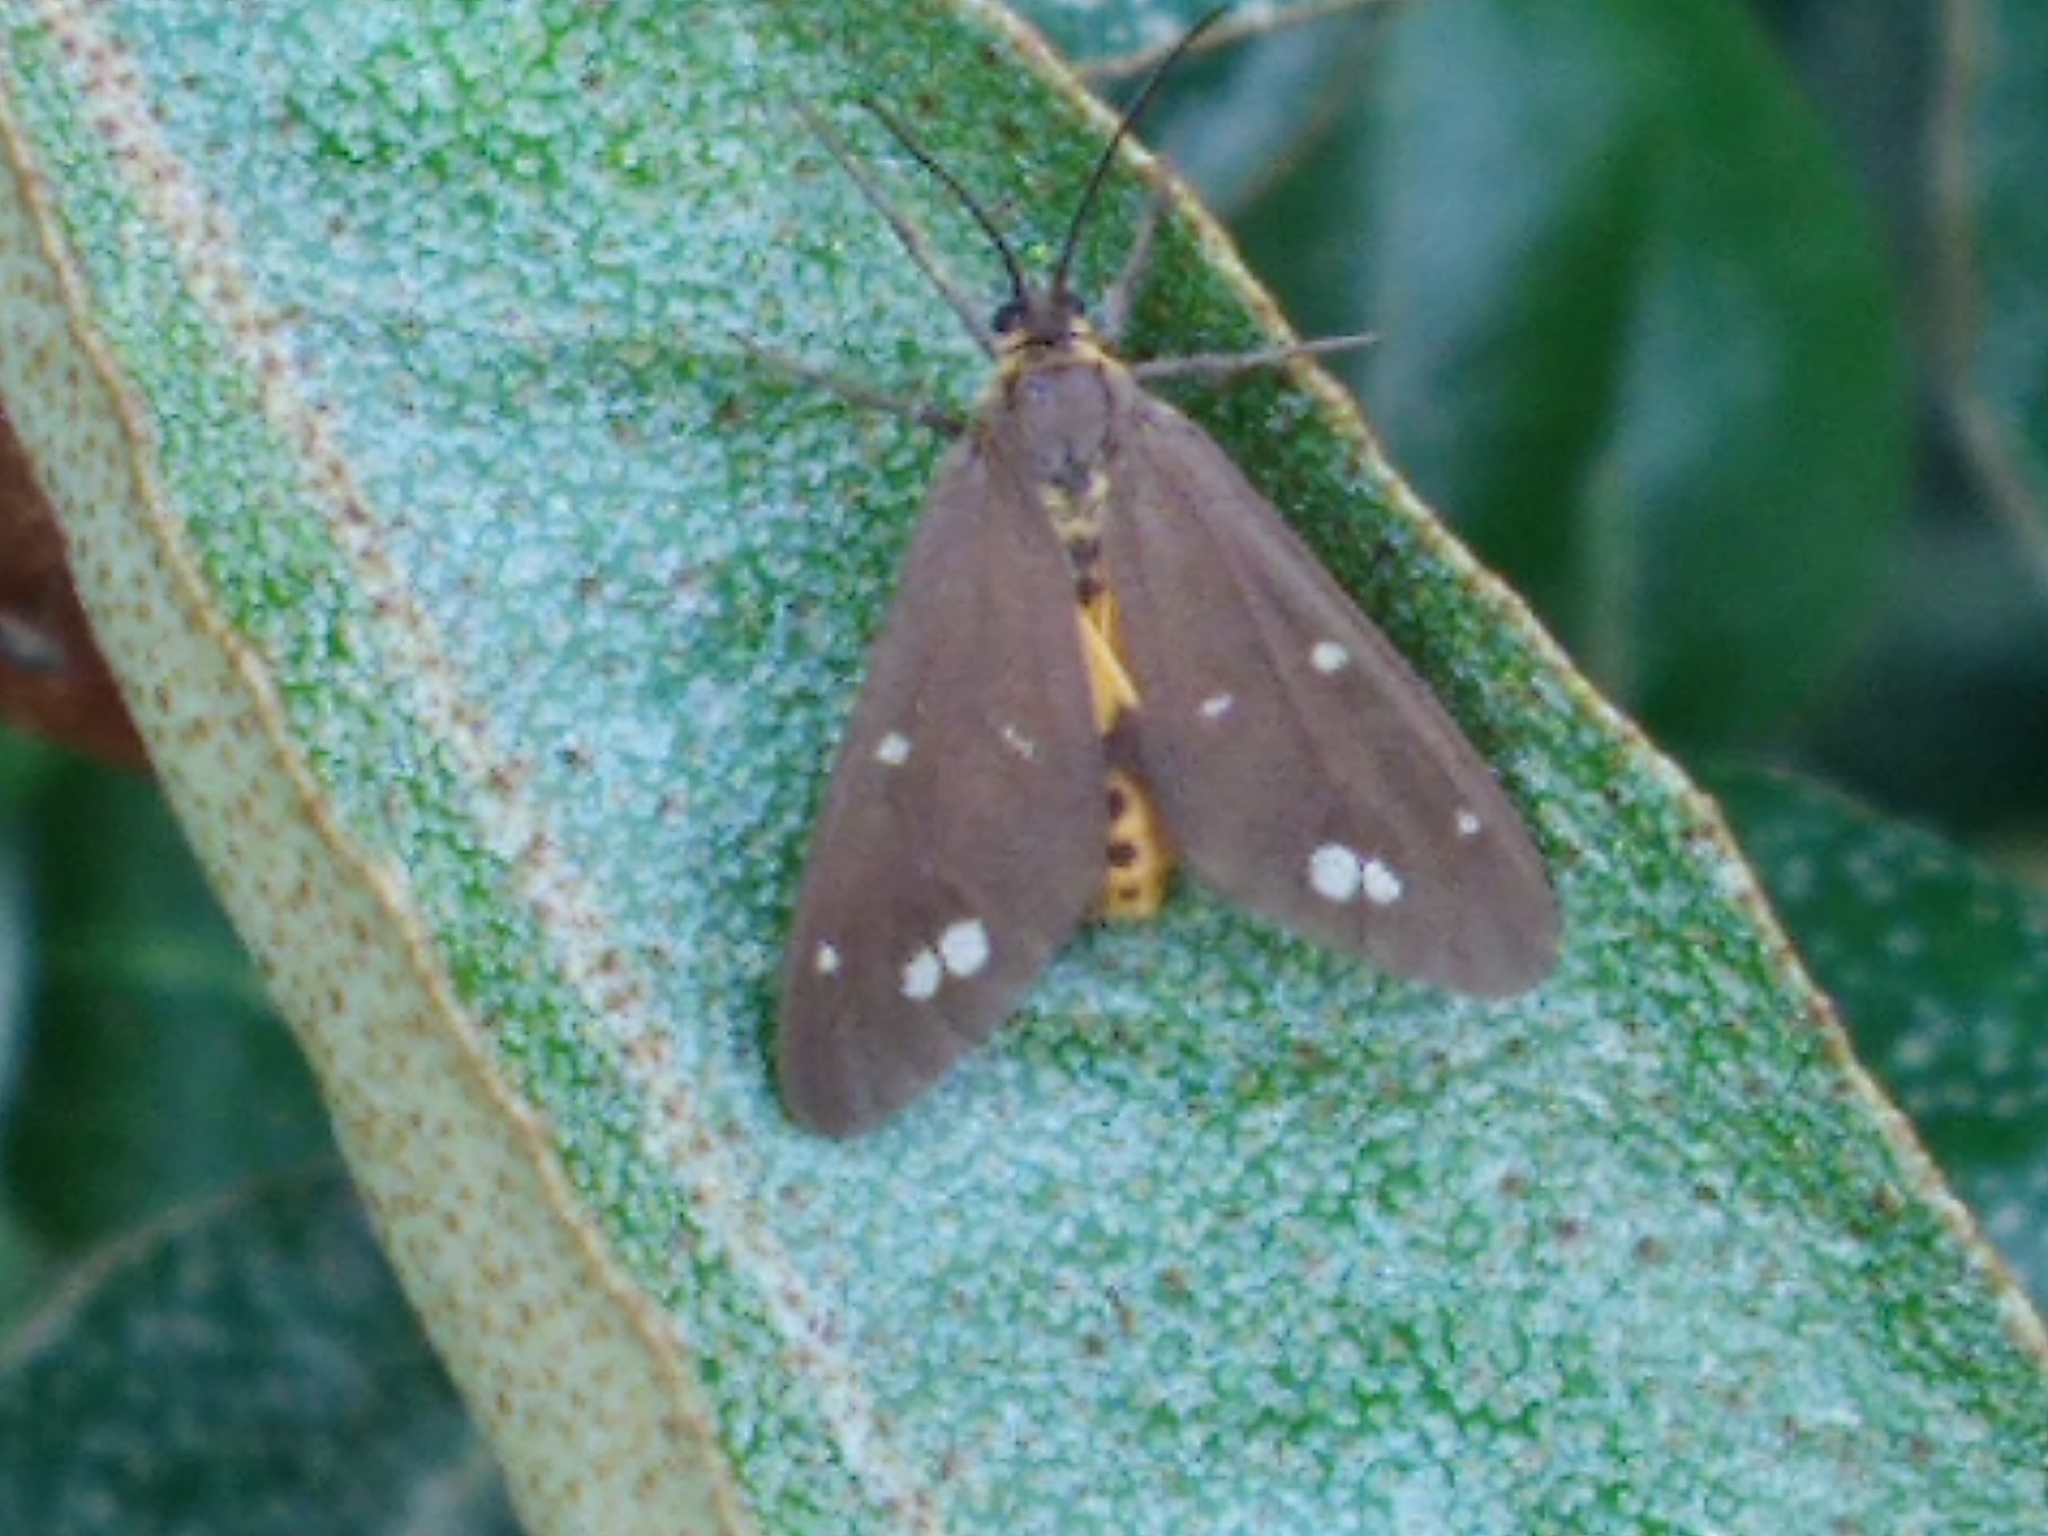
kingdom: Animalia
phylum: Arthropoda
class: Insecta
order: Lepidoptera
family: Erebidae
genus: Dysauxes
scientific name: Dysauxes punctata
